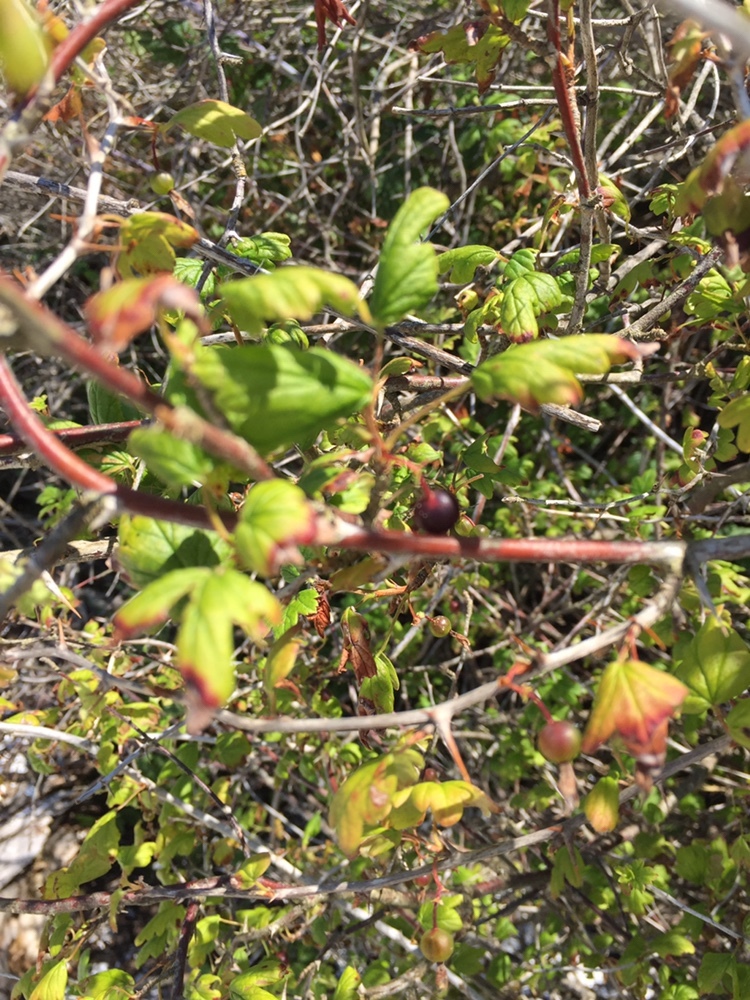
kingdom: Plantae
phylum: Tracheophyta
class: Magnoliopsida
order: Saxifragales
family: Grossulariaceae
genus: Ribes
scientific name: Ribes divaricatum
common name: Wild black gooseberry
